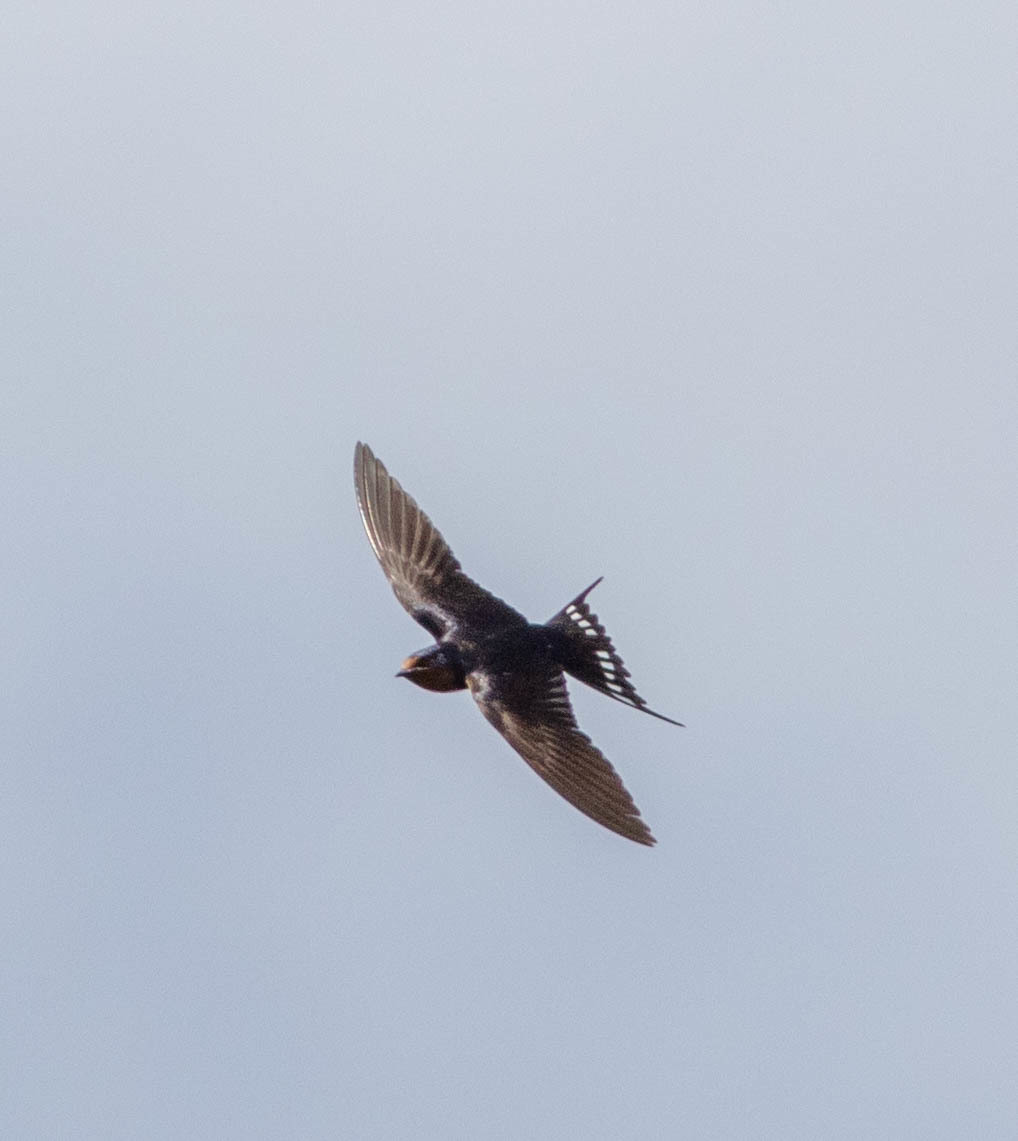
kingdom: Animalia
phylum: Chordata
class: Aves
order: Passeriformes
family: Hirundinidae
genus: Hirundo
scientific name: Hirundo rustica
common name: Barn swallow
